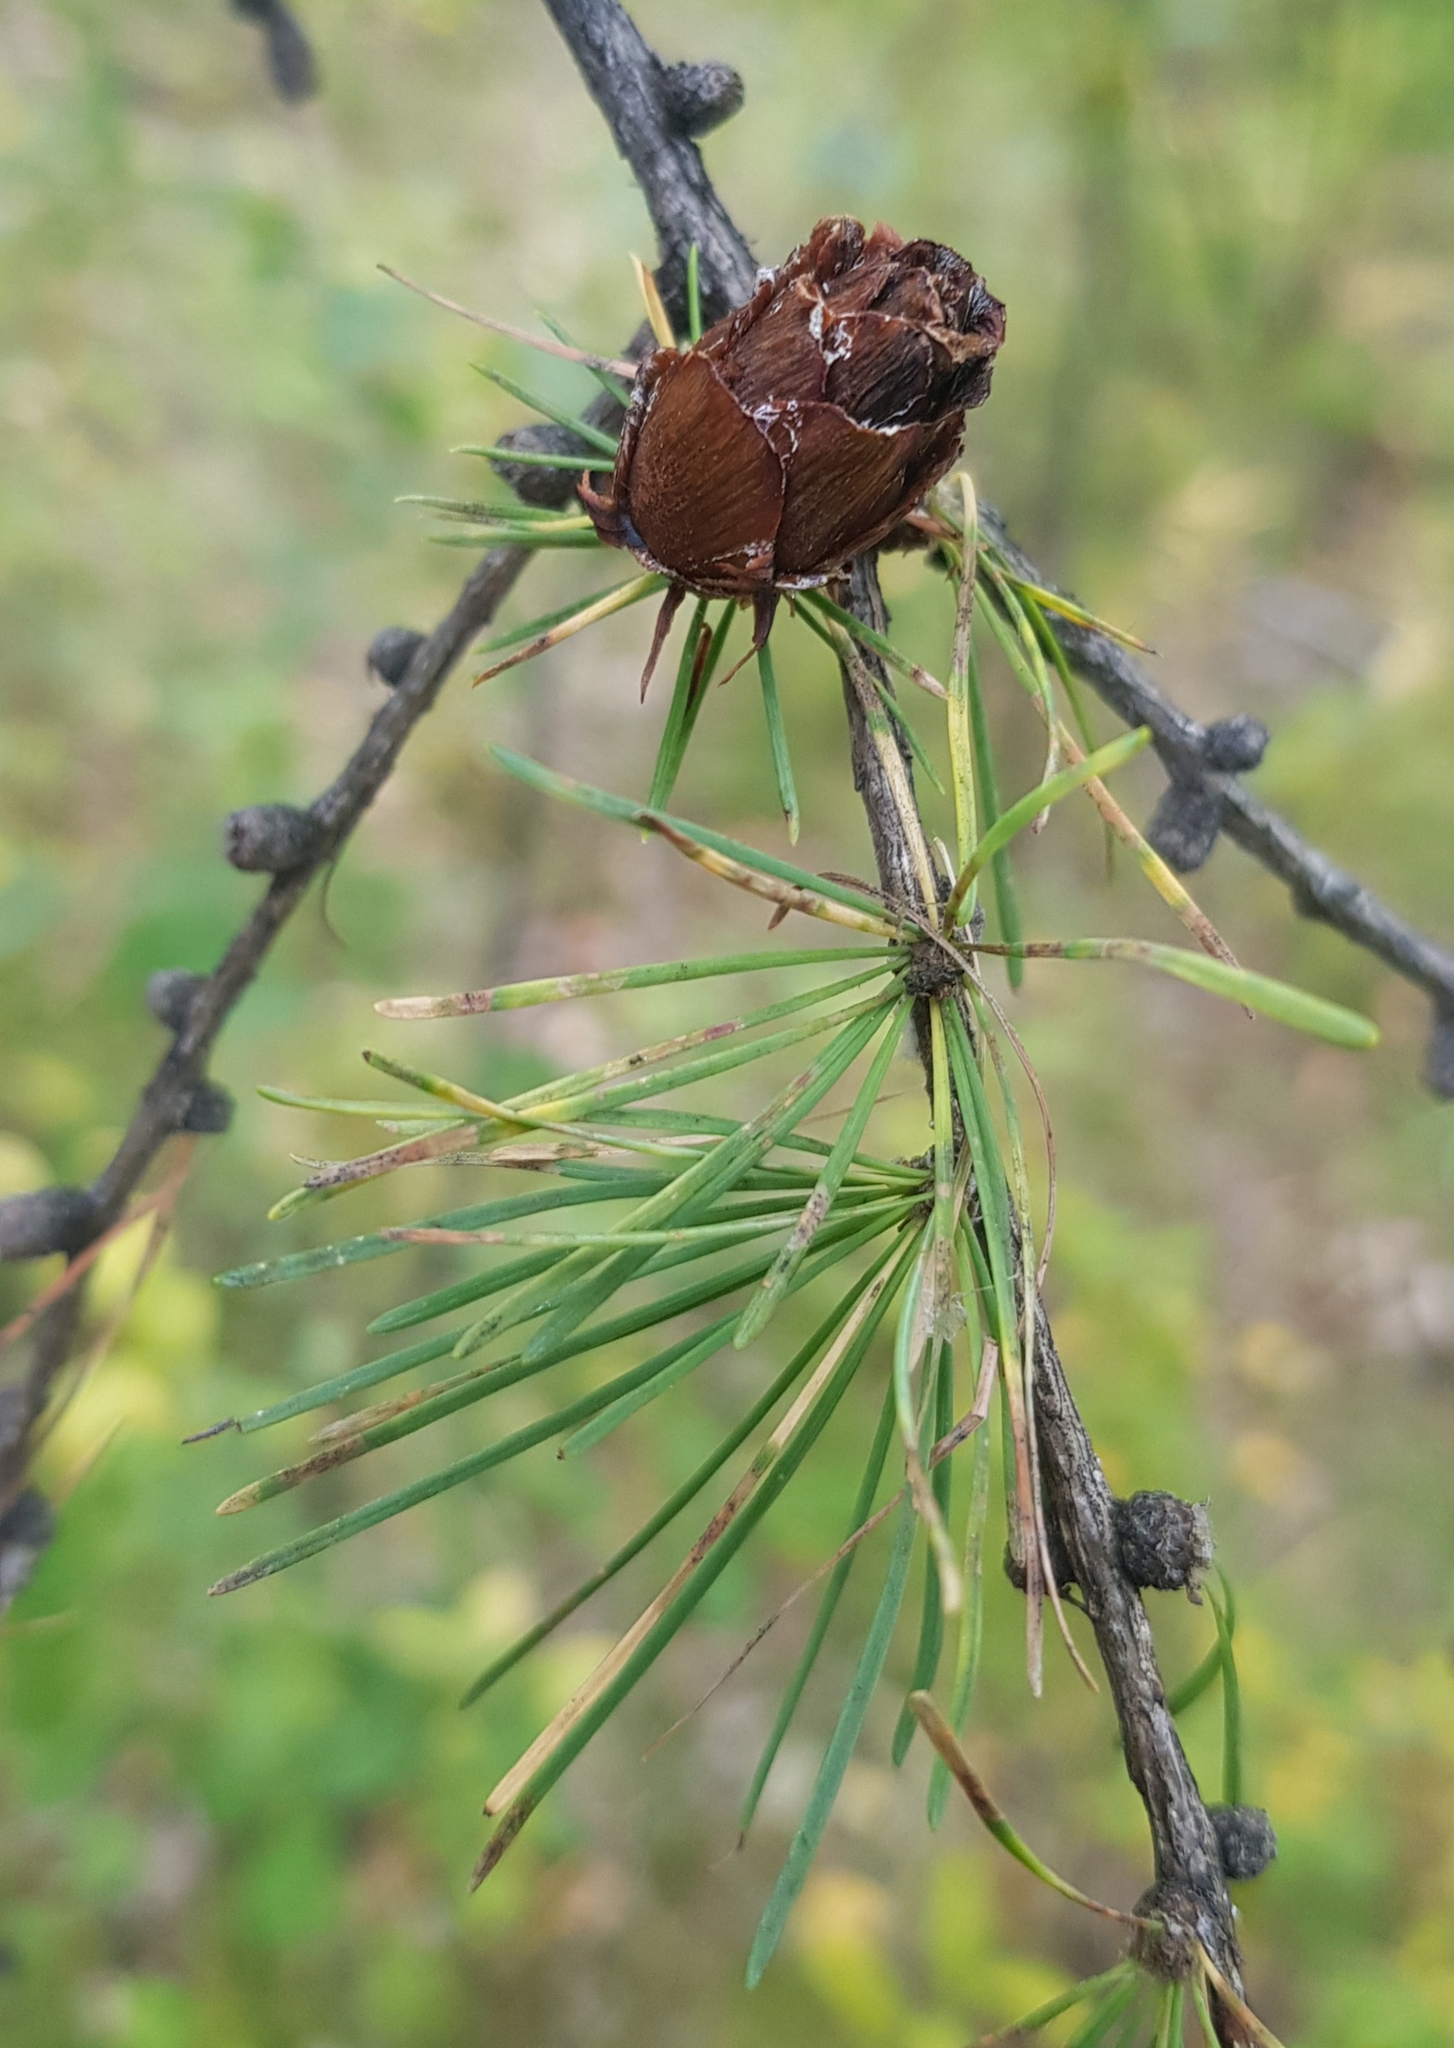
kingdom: Plantae
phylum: Tracheophyta
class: Pinopsida
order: Pinales
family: Pinaceae
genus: Larix
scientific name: Larix gmelinii
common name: Dahurian larch
